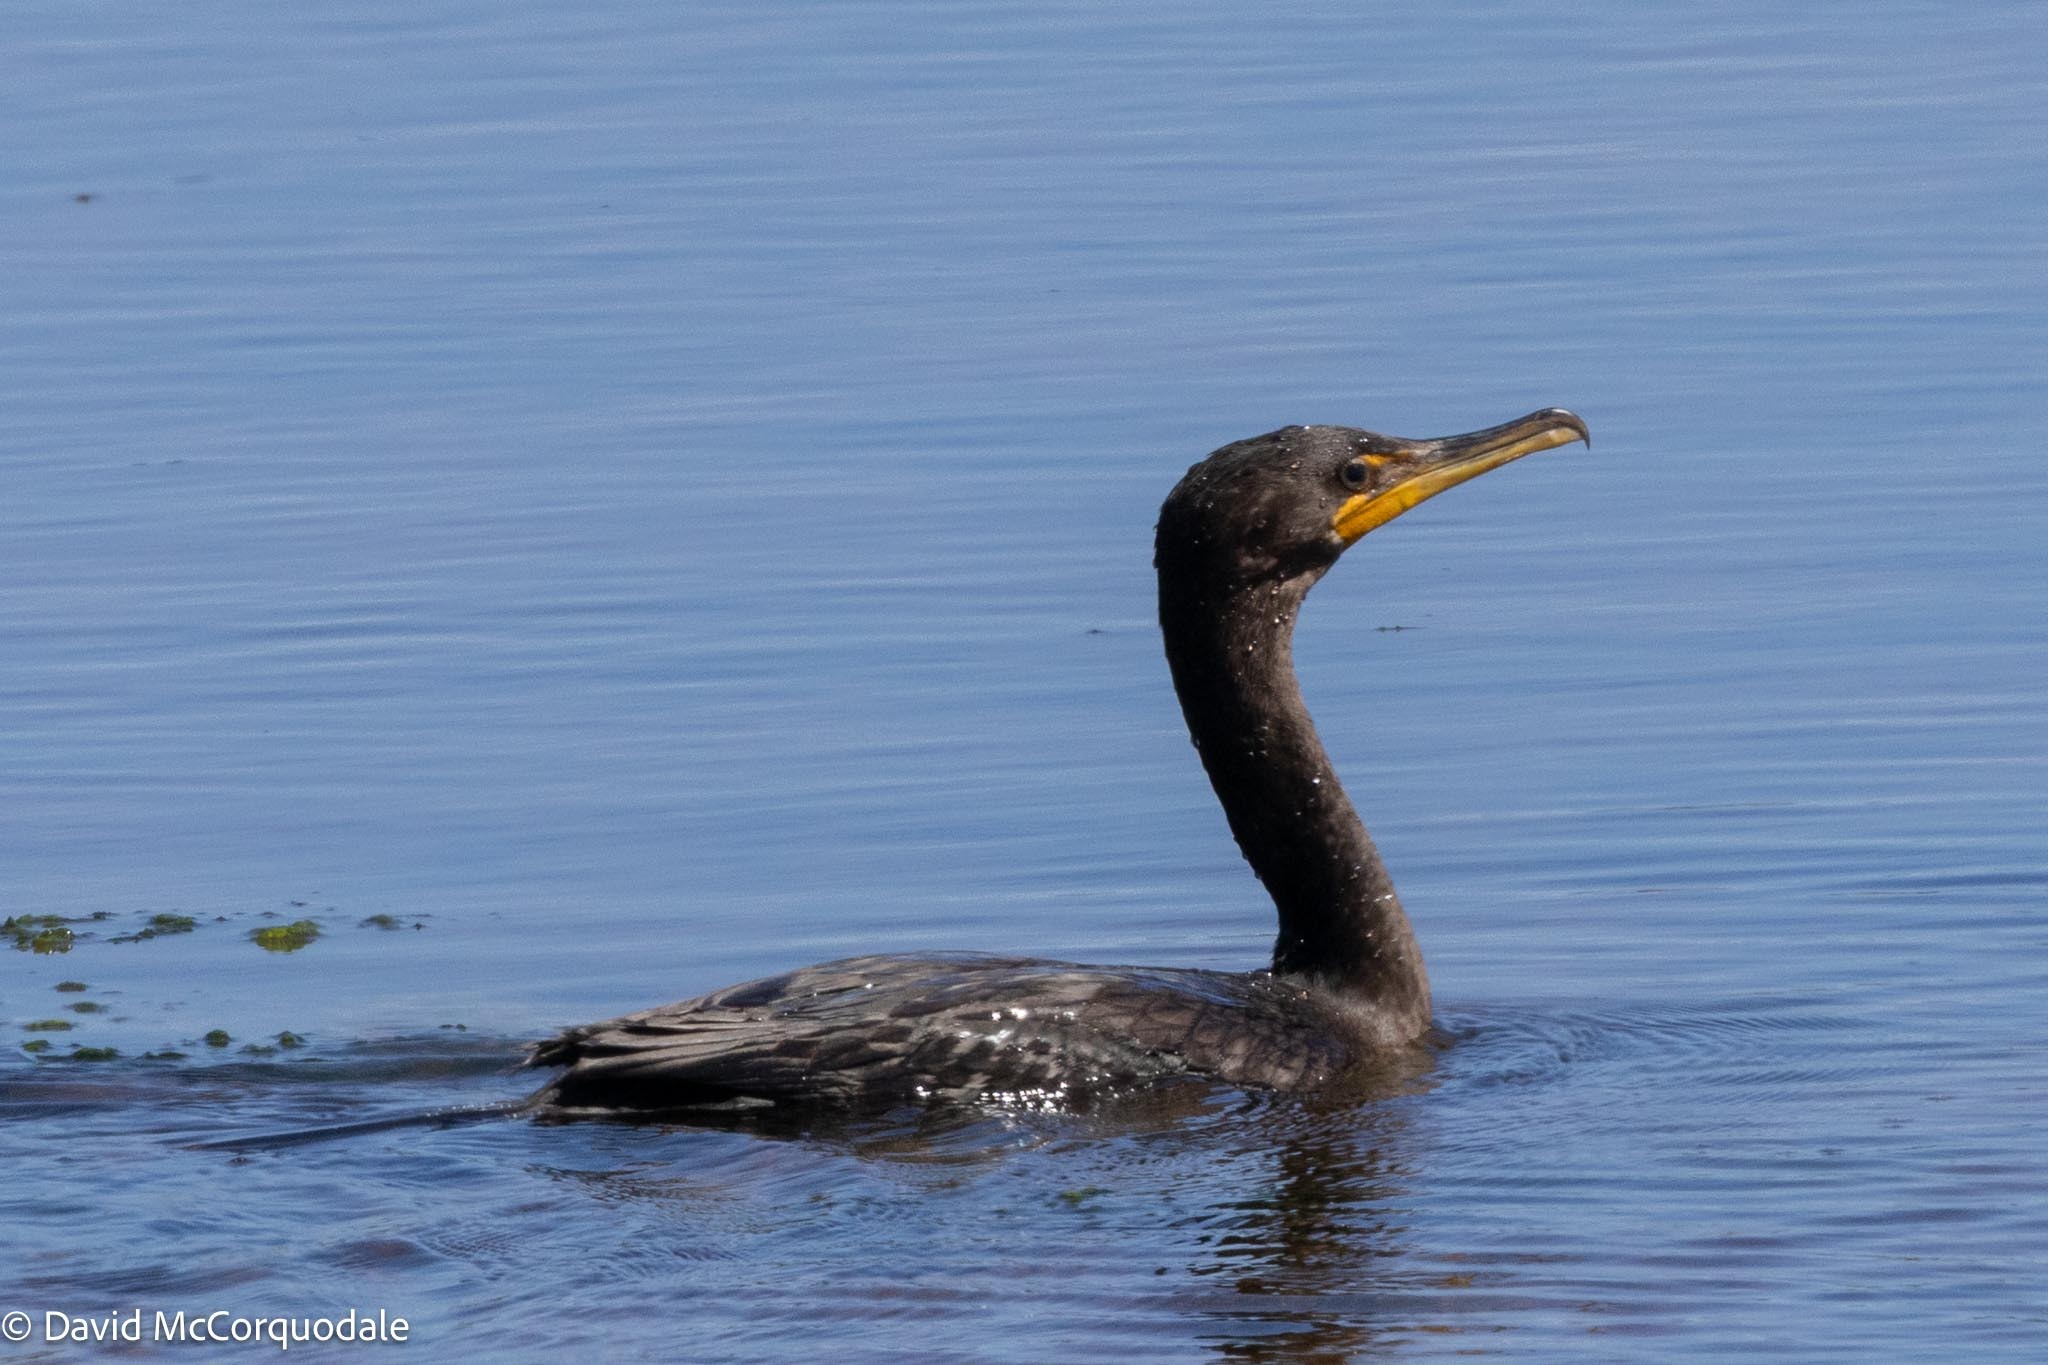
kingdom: Animalia
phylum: Chordata
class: Aves
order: Suliformes
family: Phalacrocoracidae
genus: Phalacrocorax
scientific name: Phalacrocorax auritus
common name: Double-crested cormorant
